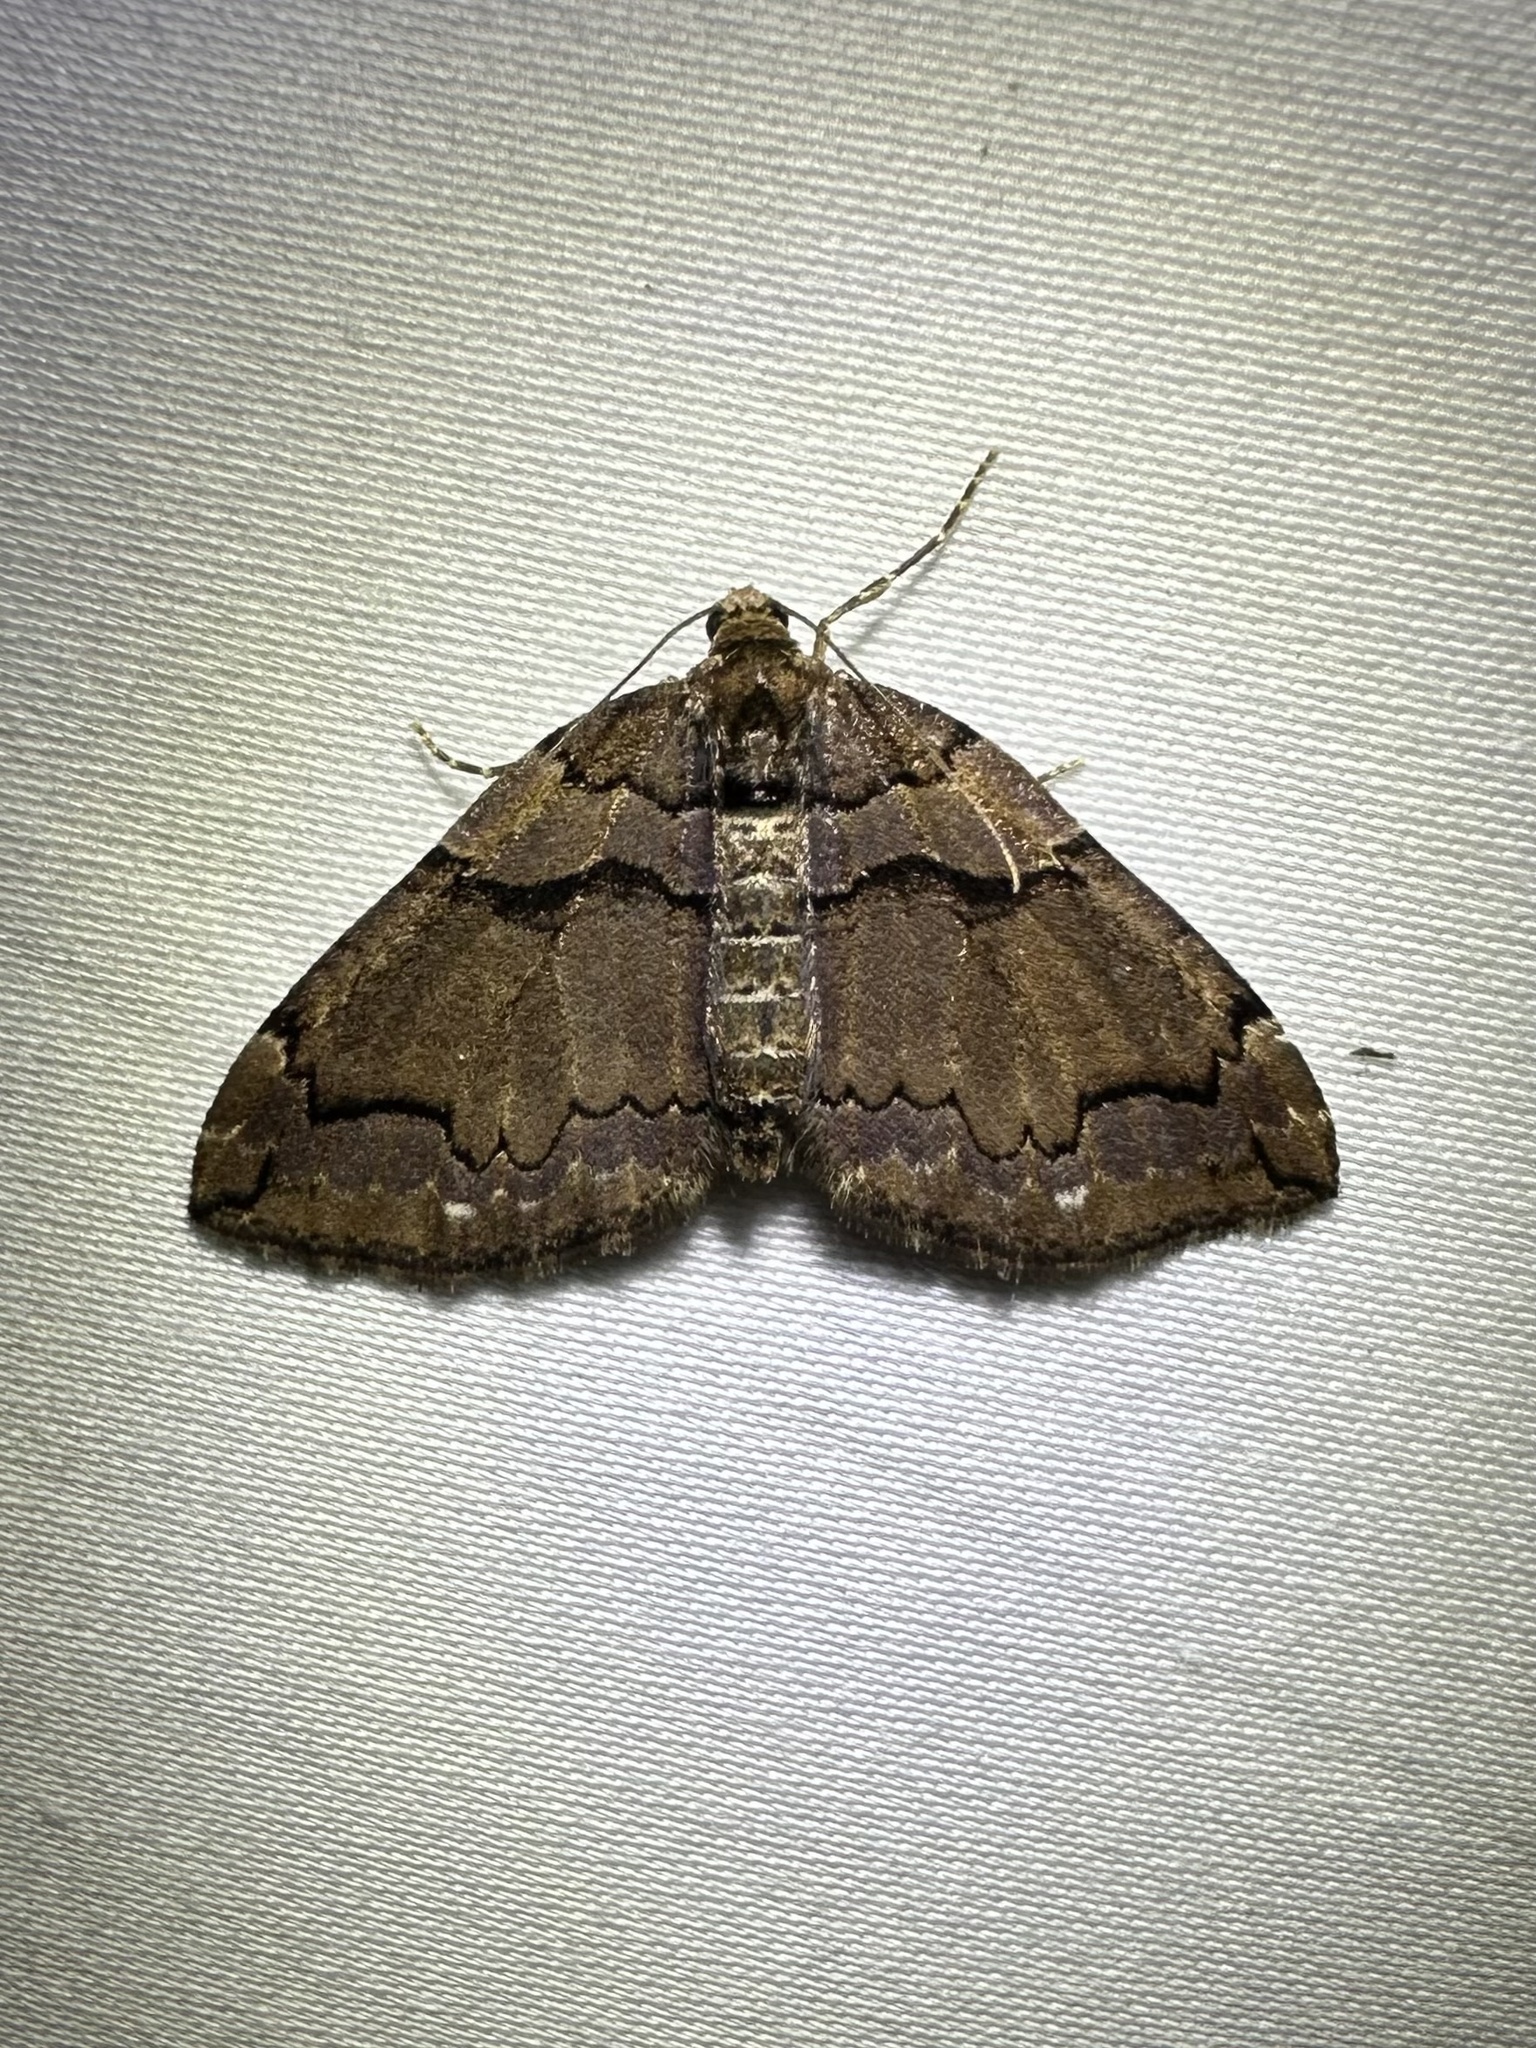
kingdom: Animalia
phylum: Arthropoda
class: Insecta
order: Lepidoptera
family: Geometridae
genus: Anticlea
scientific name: Anticlea vasiliata
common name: Variable carpet
